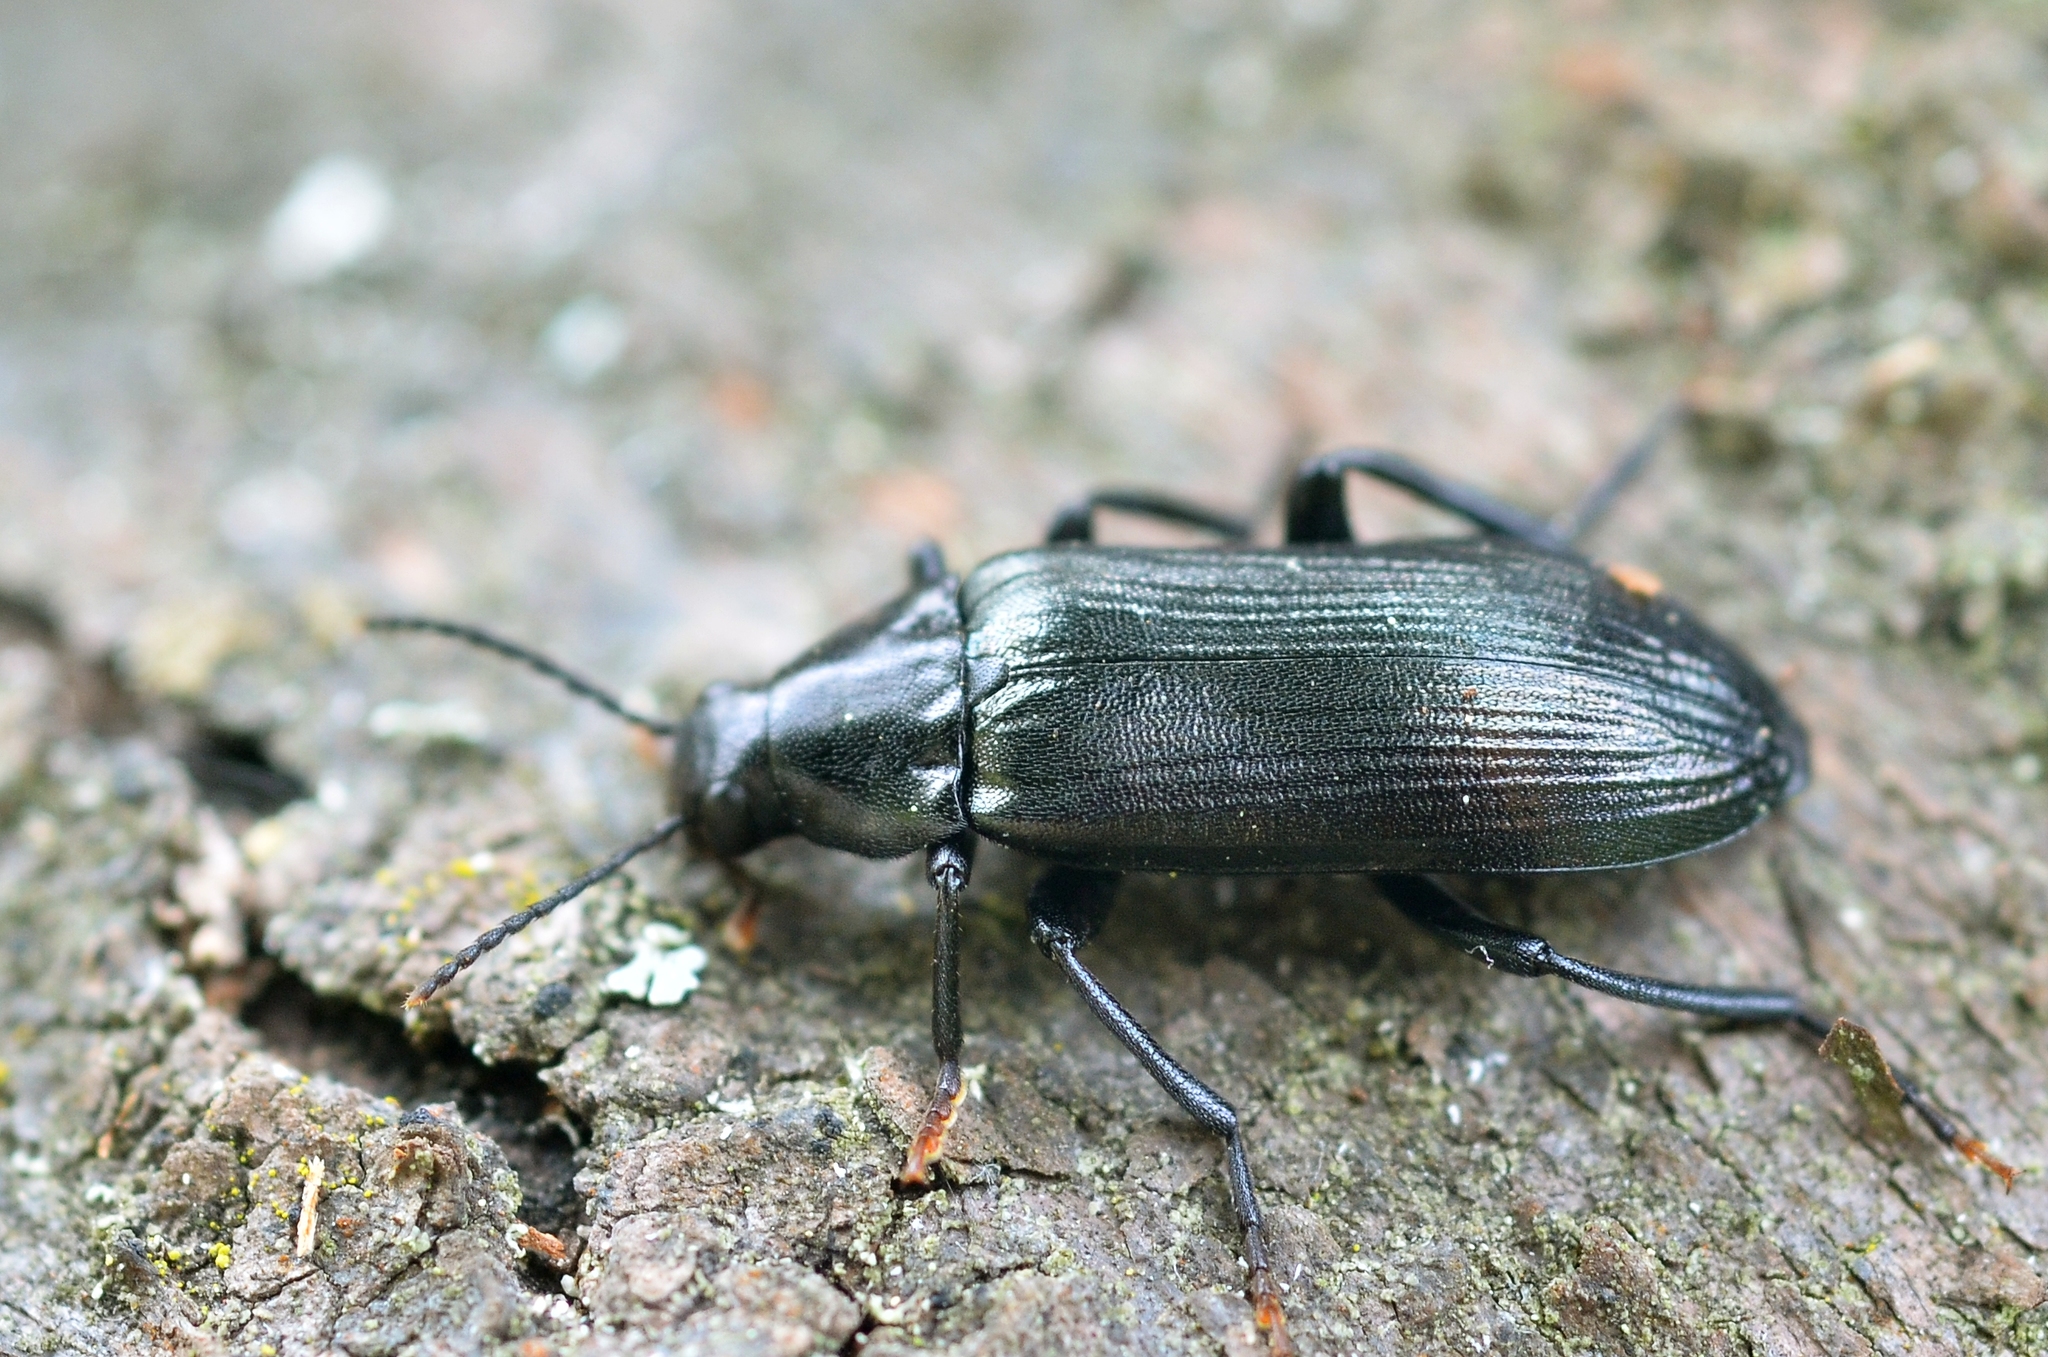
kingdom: Animalia
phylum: Arthropoda
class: Insecta
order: Coleoptera
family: Melandryidae
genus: Melandrya
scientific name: Melandrya caraboides
